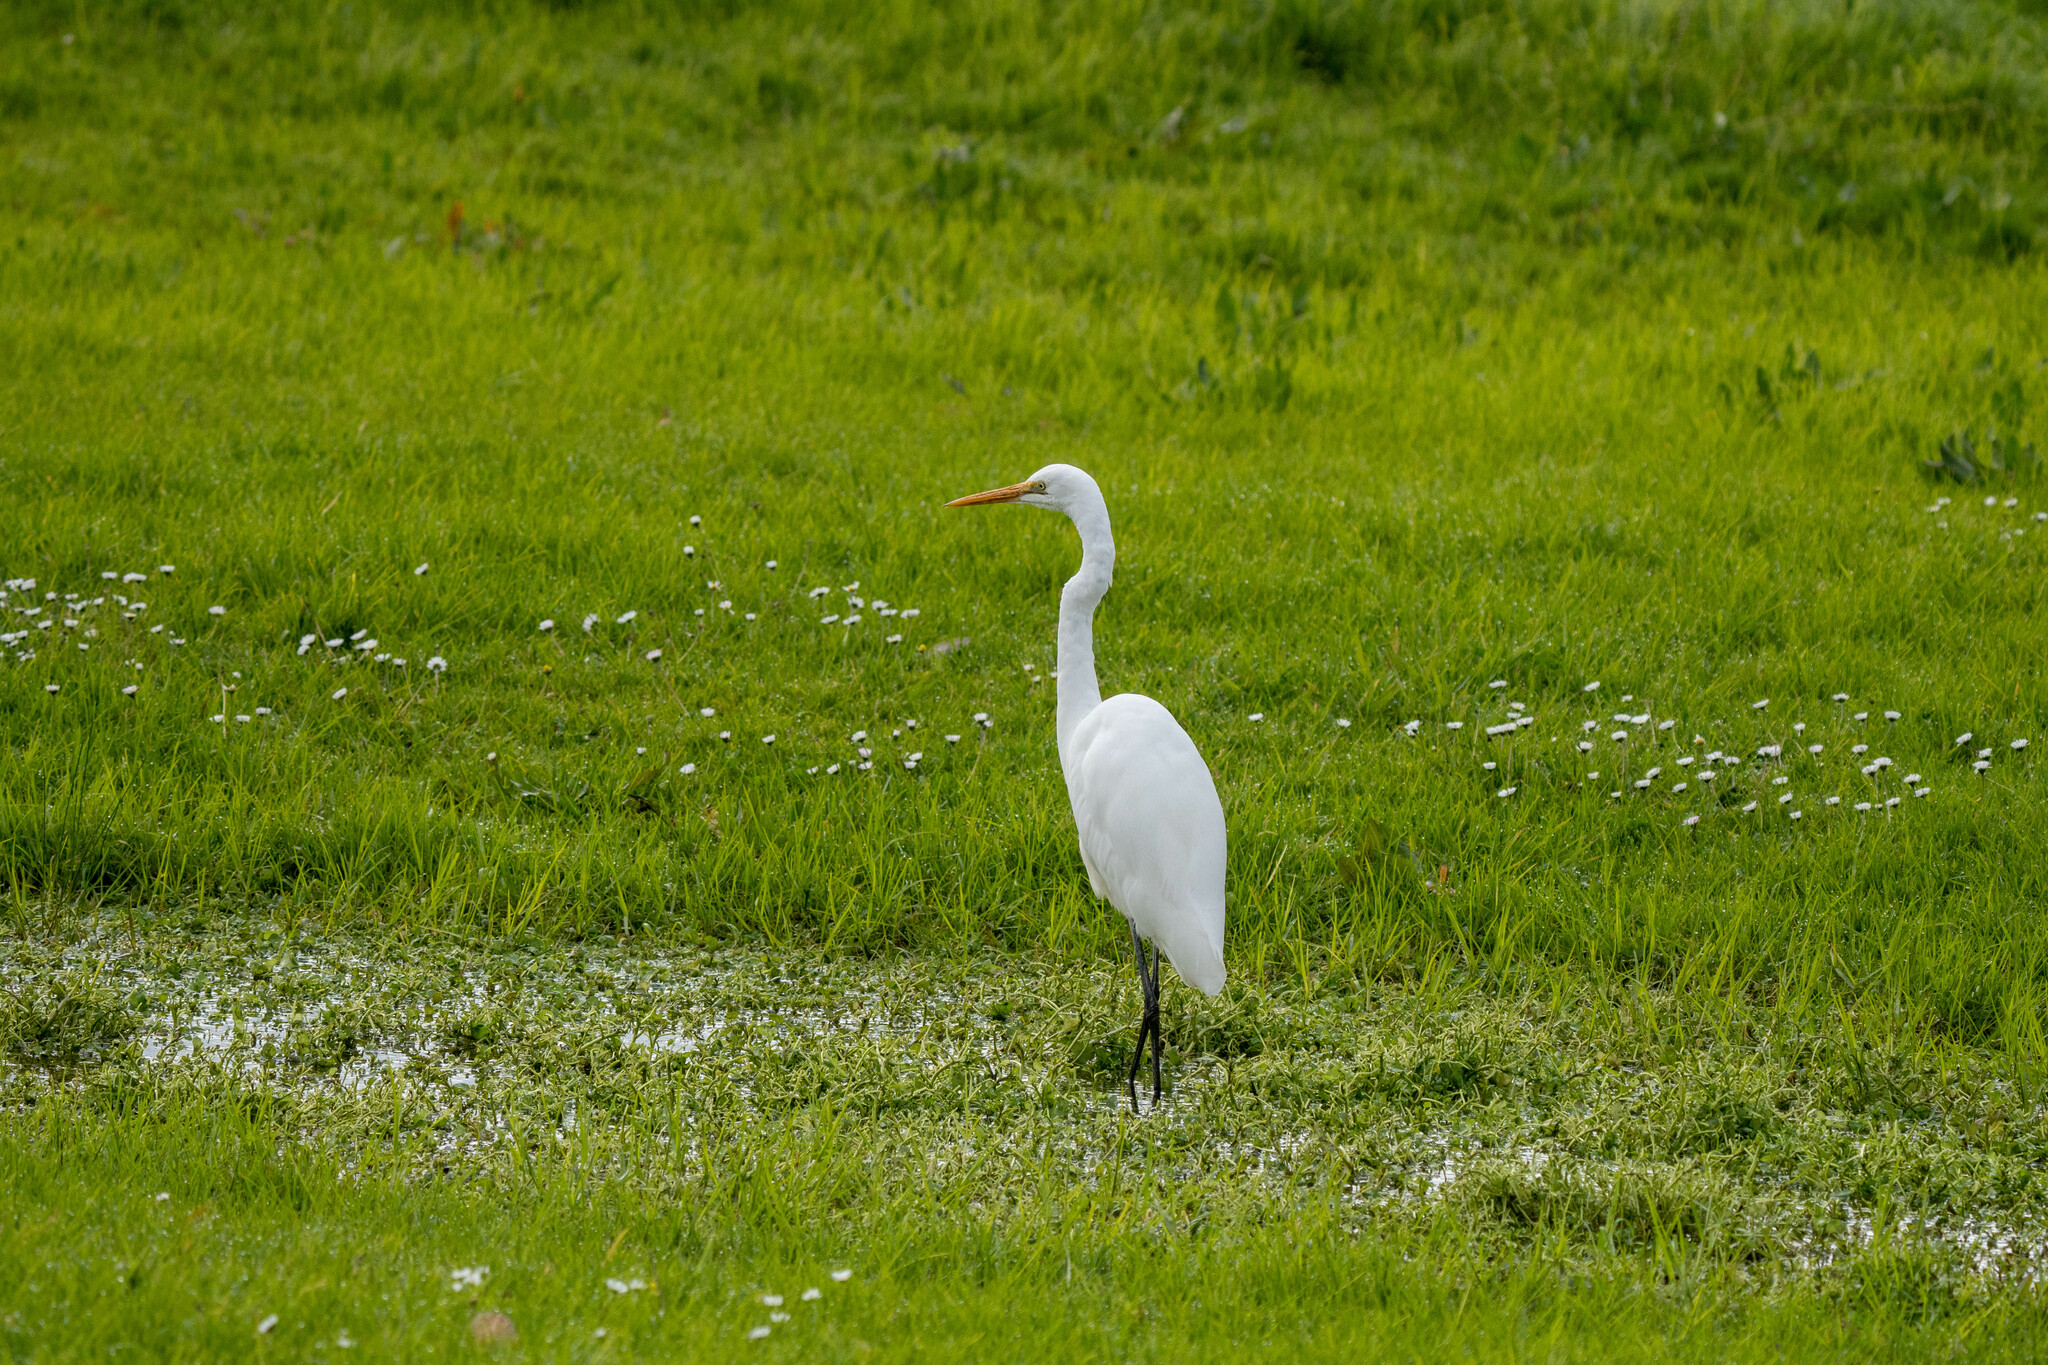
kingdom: Animalia
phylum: Chordata
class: Aves
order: Pelecaniformes
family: Ardeidae
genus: Ardea
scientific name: Ardea alba
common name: Great egret
